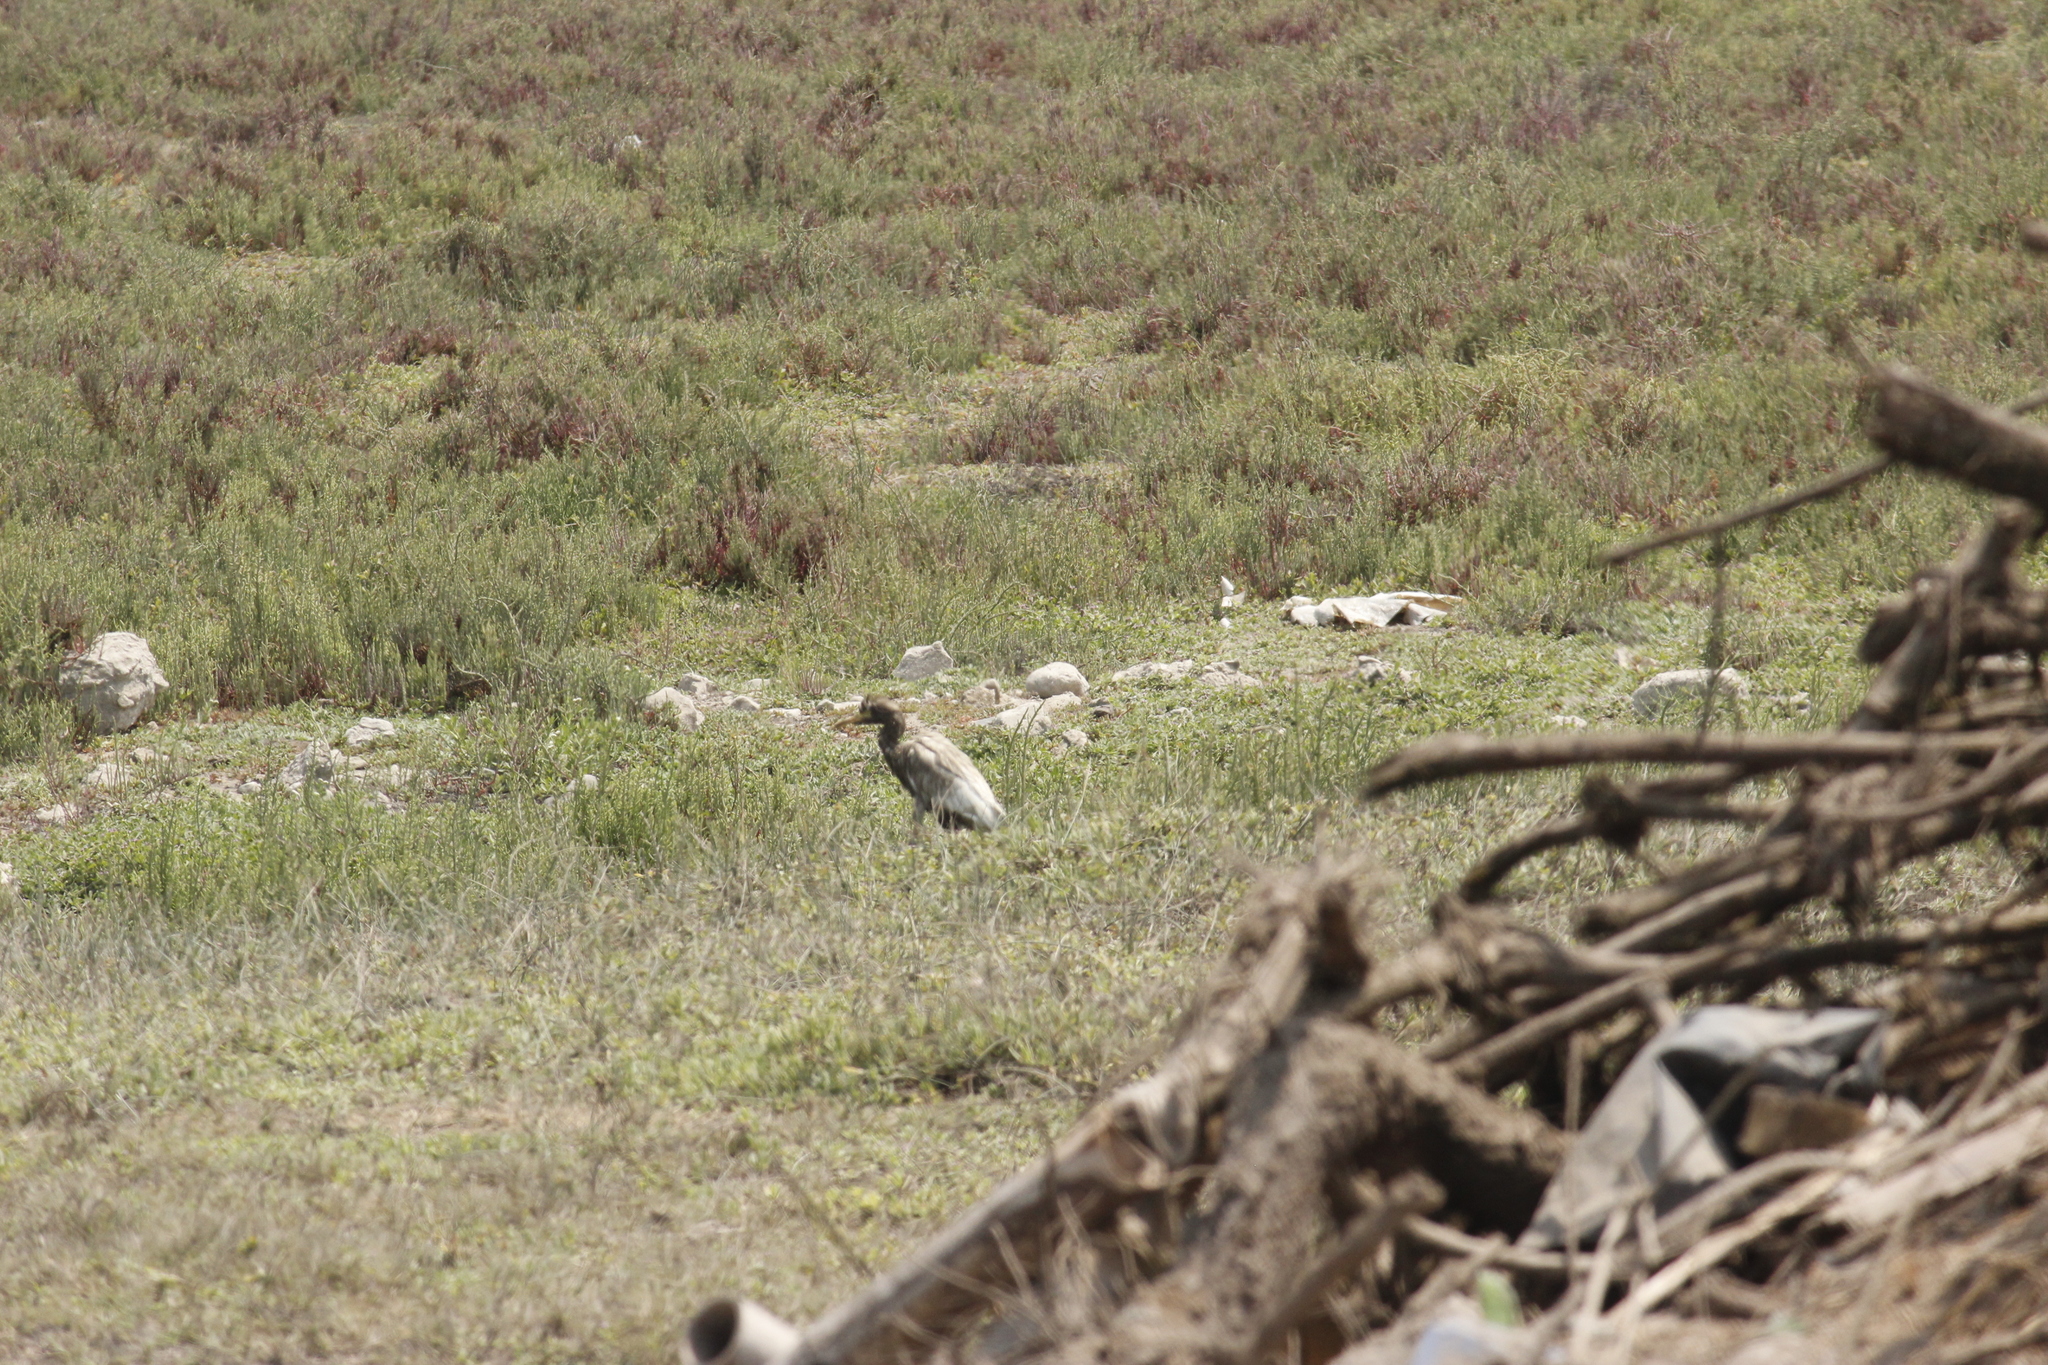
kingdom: Animalia
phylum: Chordata
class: Aves
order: Pelecaniformes
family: Ardeidae
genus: Bubulcus
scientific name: Bubulcus ibis
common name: Cattle egret
